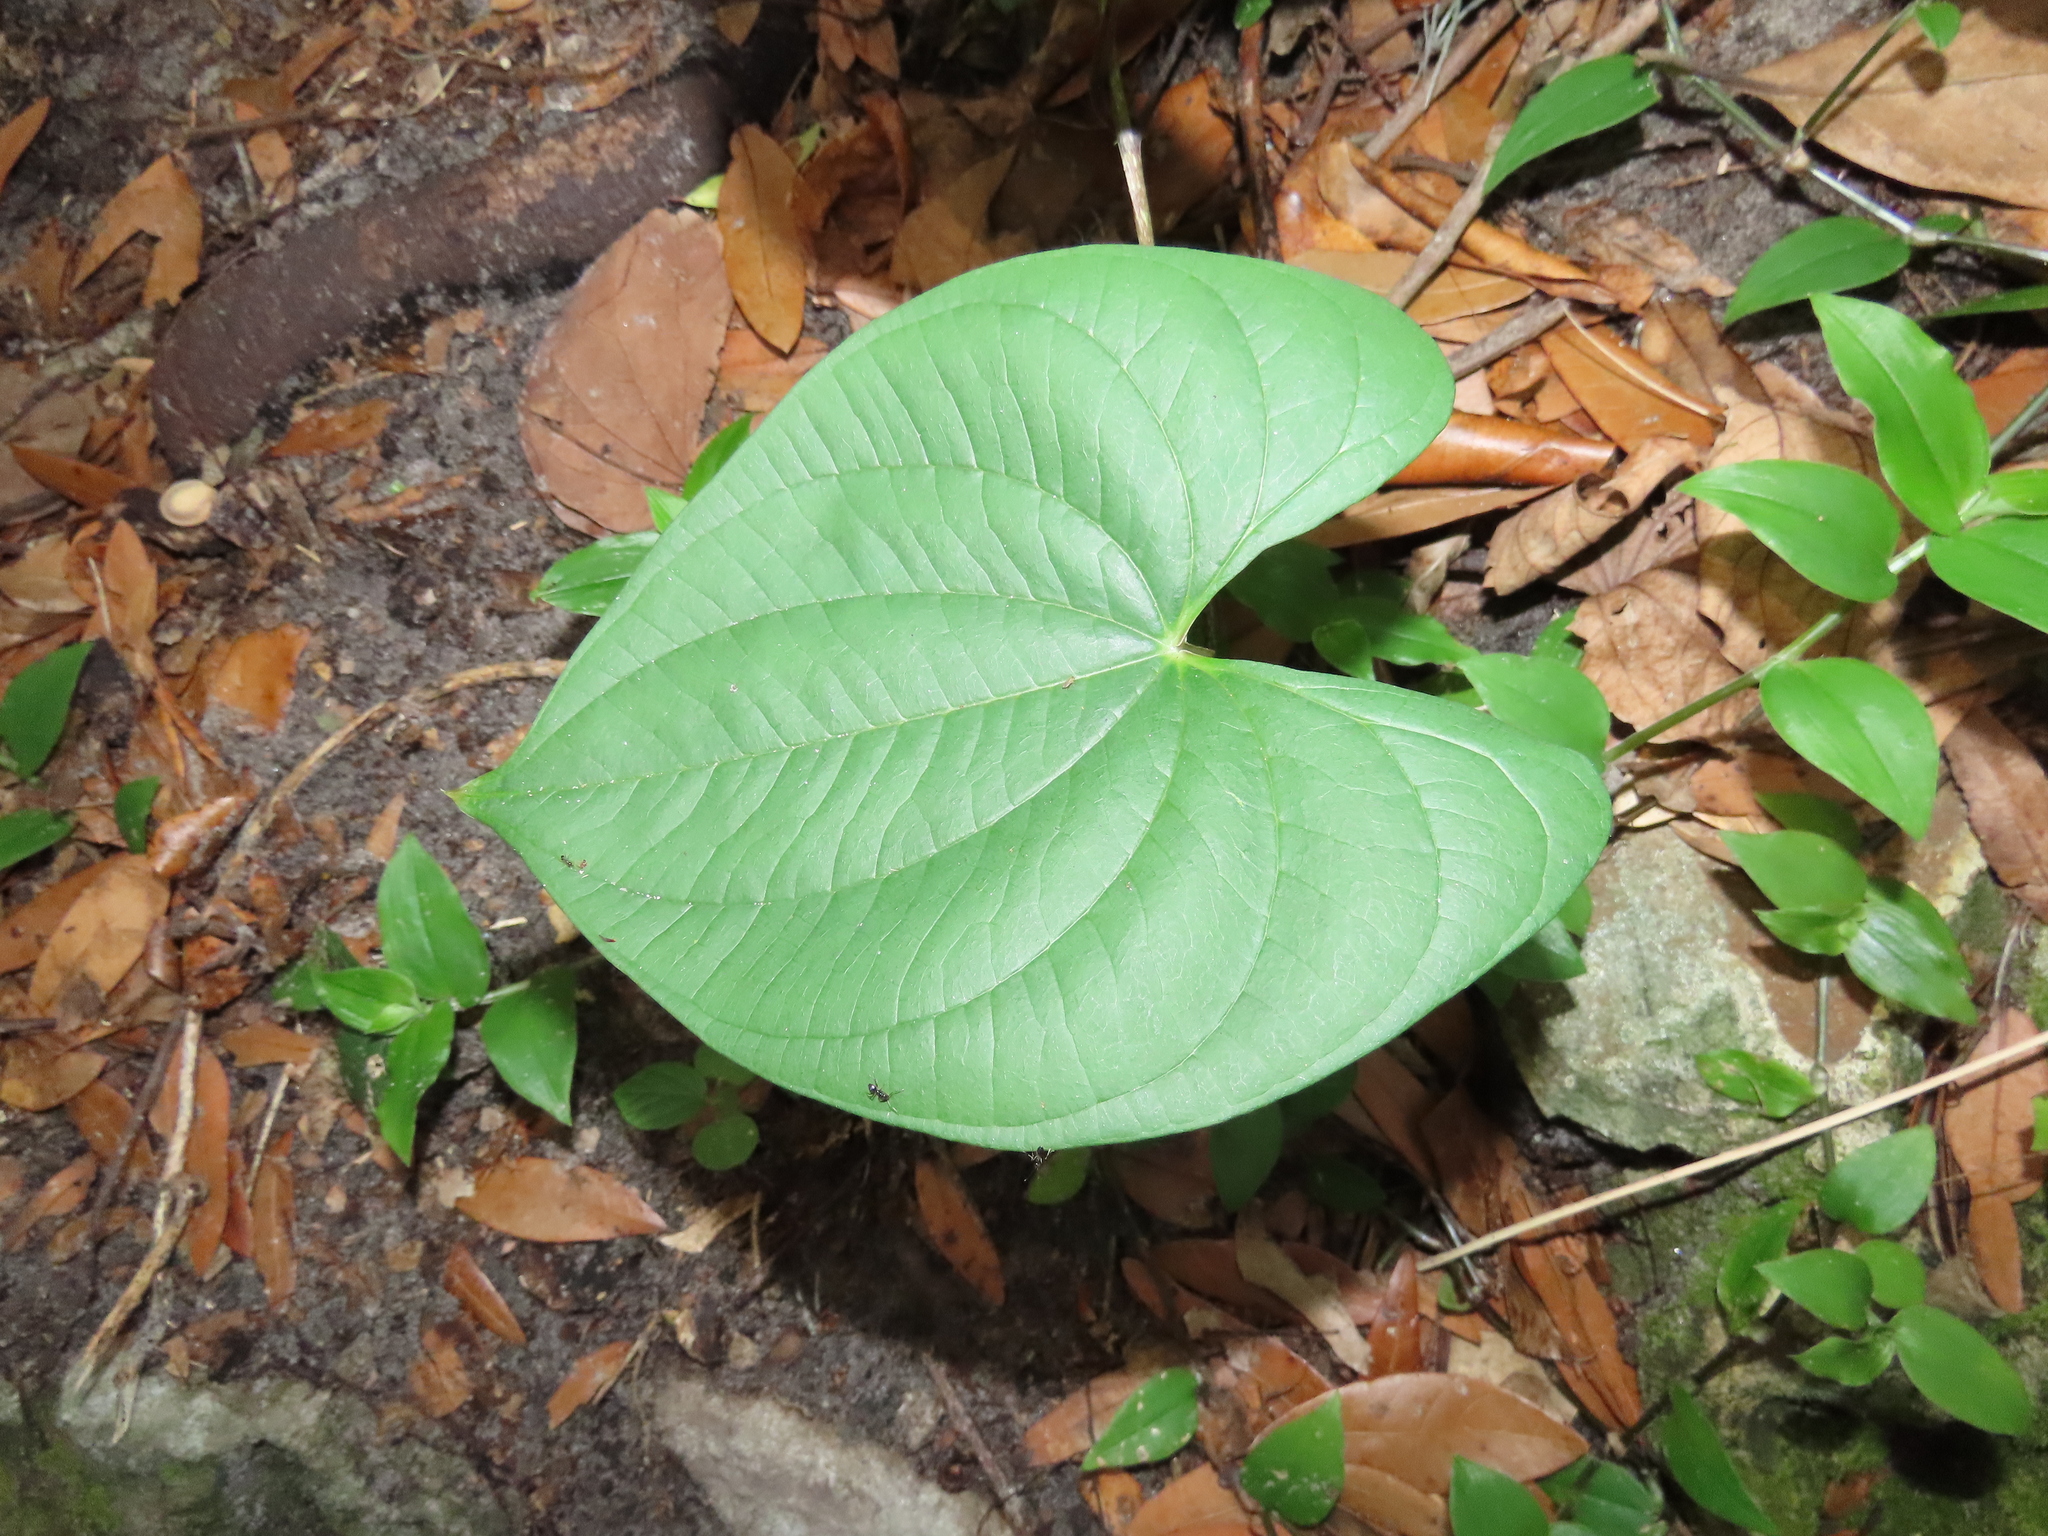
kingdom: Plantae
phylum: Tracheophyta
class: Liliopsida
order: Dioscoreales
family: Dioscoreaceae
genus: Dioscorea
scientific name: Dioscorea bulbifera
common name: Air yam
